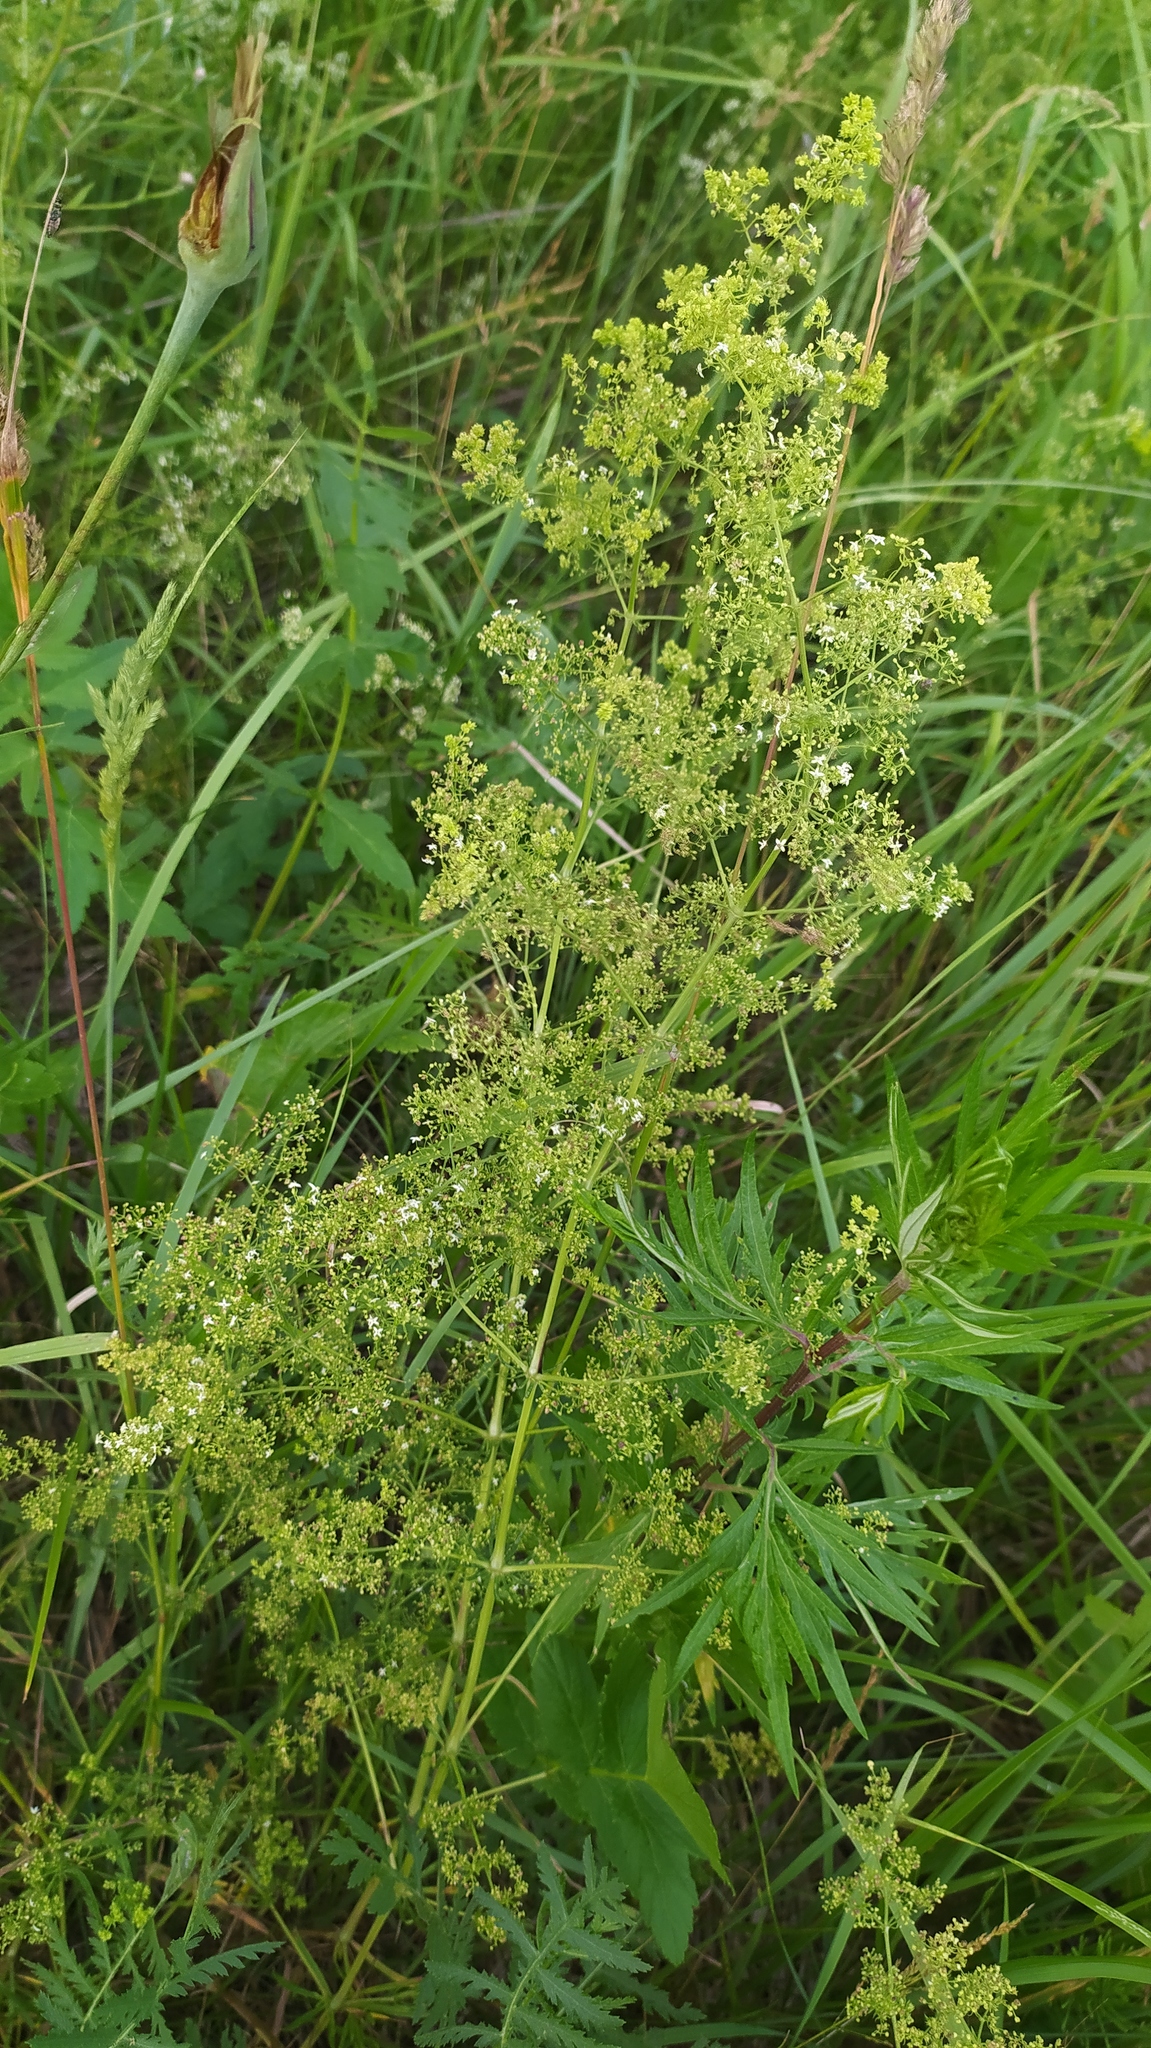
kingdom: Plantae
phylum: Tracheophyta
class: Magnoliopsida
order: Gentianales
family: Rubiaceae
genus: Galium
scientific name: Galium mollugo
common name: Hedge bedstraw
